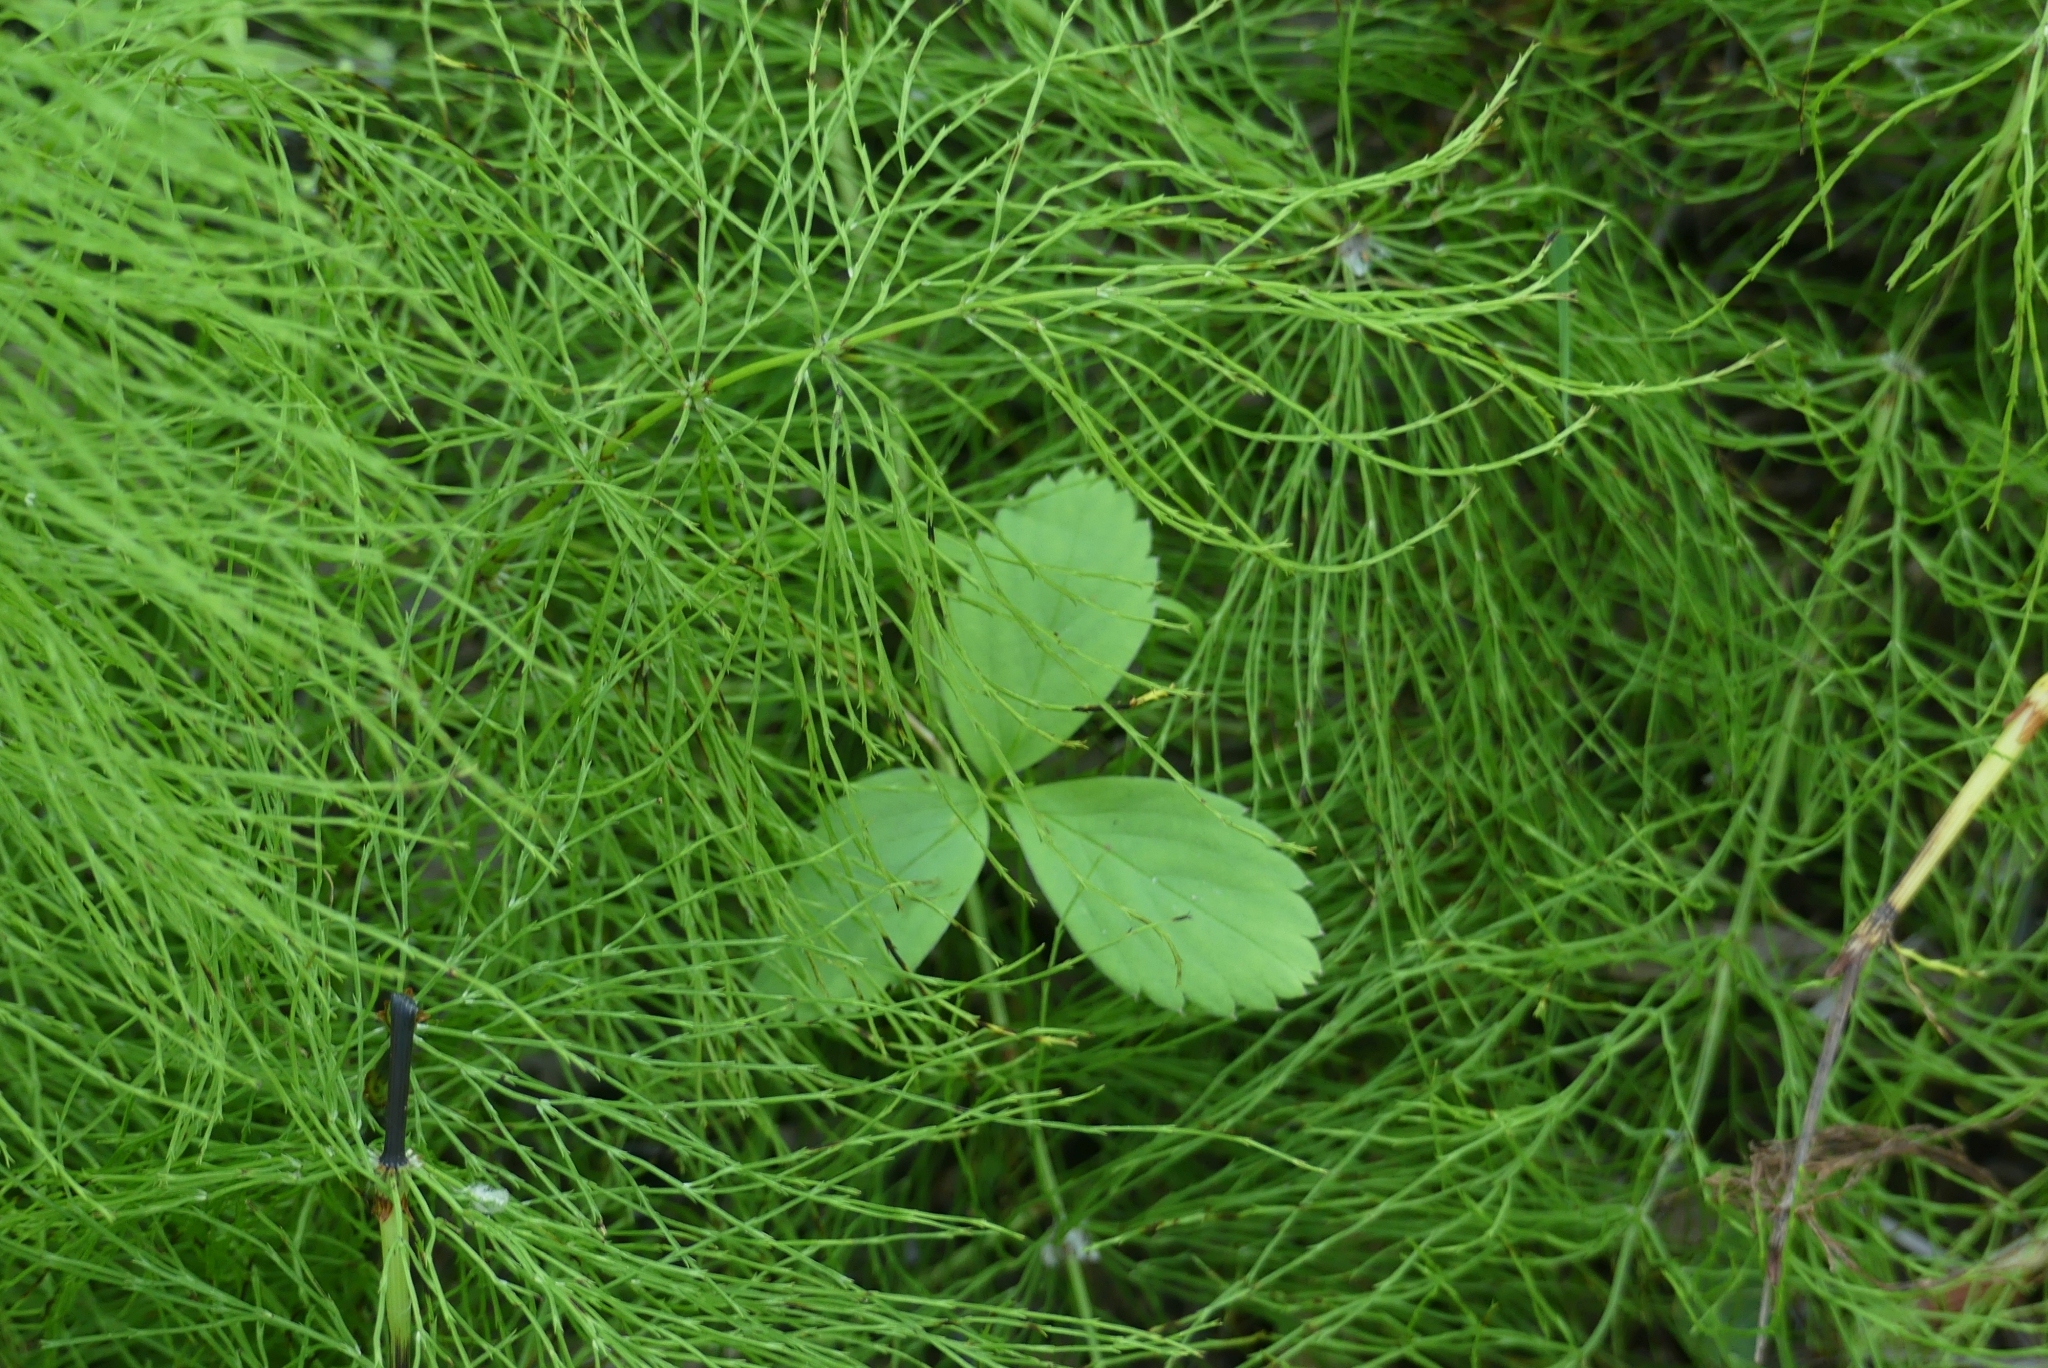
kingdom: Plantae
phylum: Tracheophyta
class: Magnoliopsida
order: Rosales
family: Rosaceae
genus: Fragaria
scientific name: Fragaria virginiana
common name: Thickleaved wild strawberry
